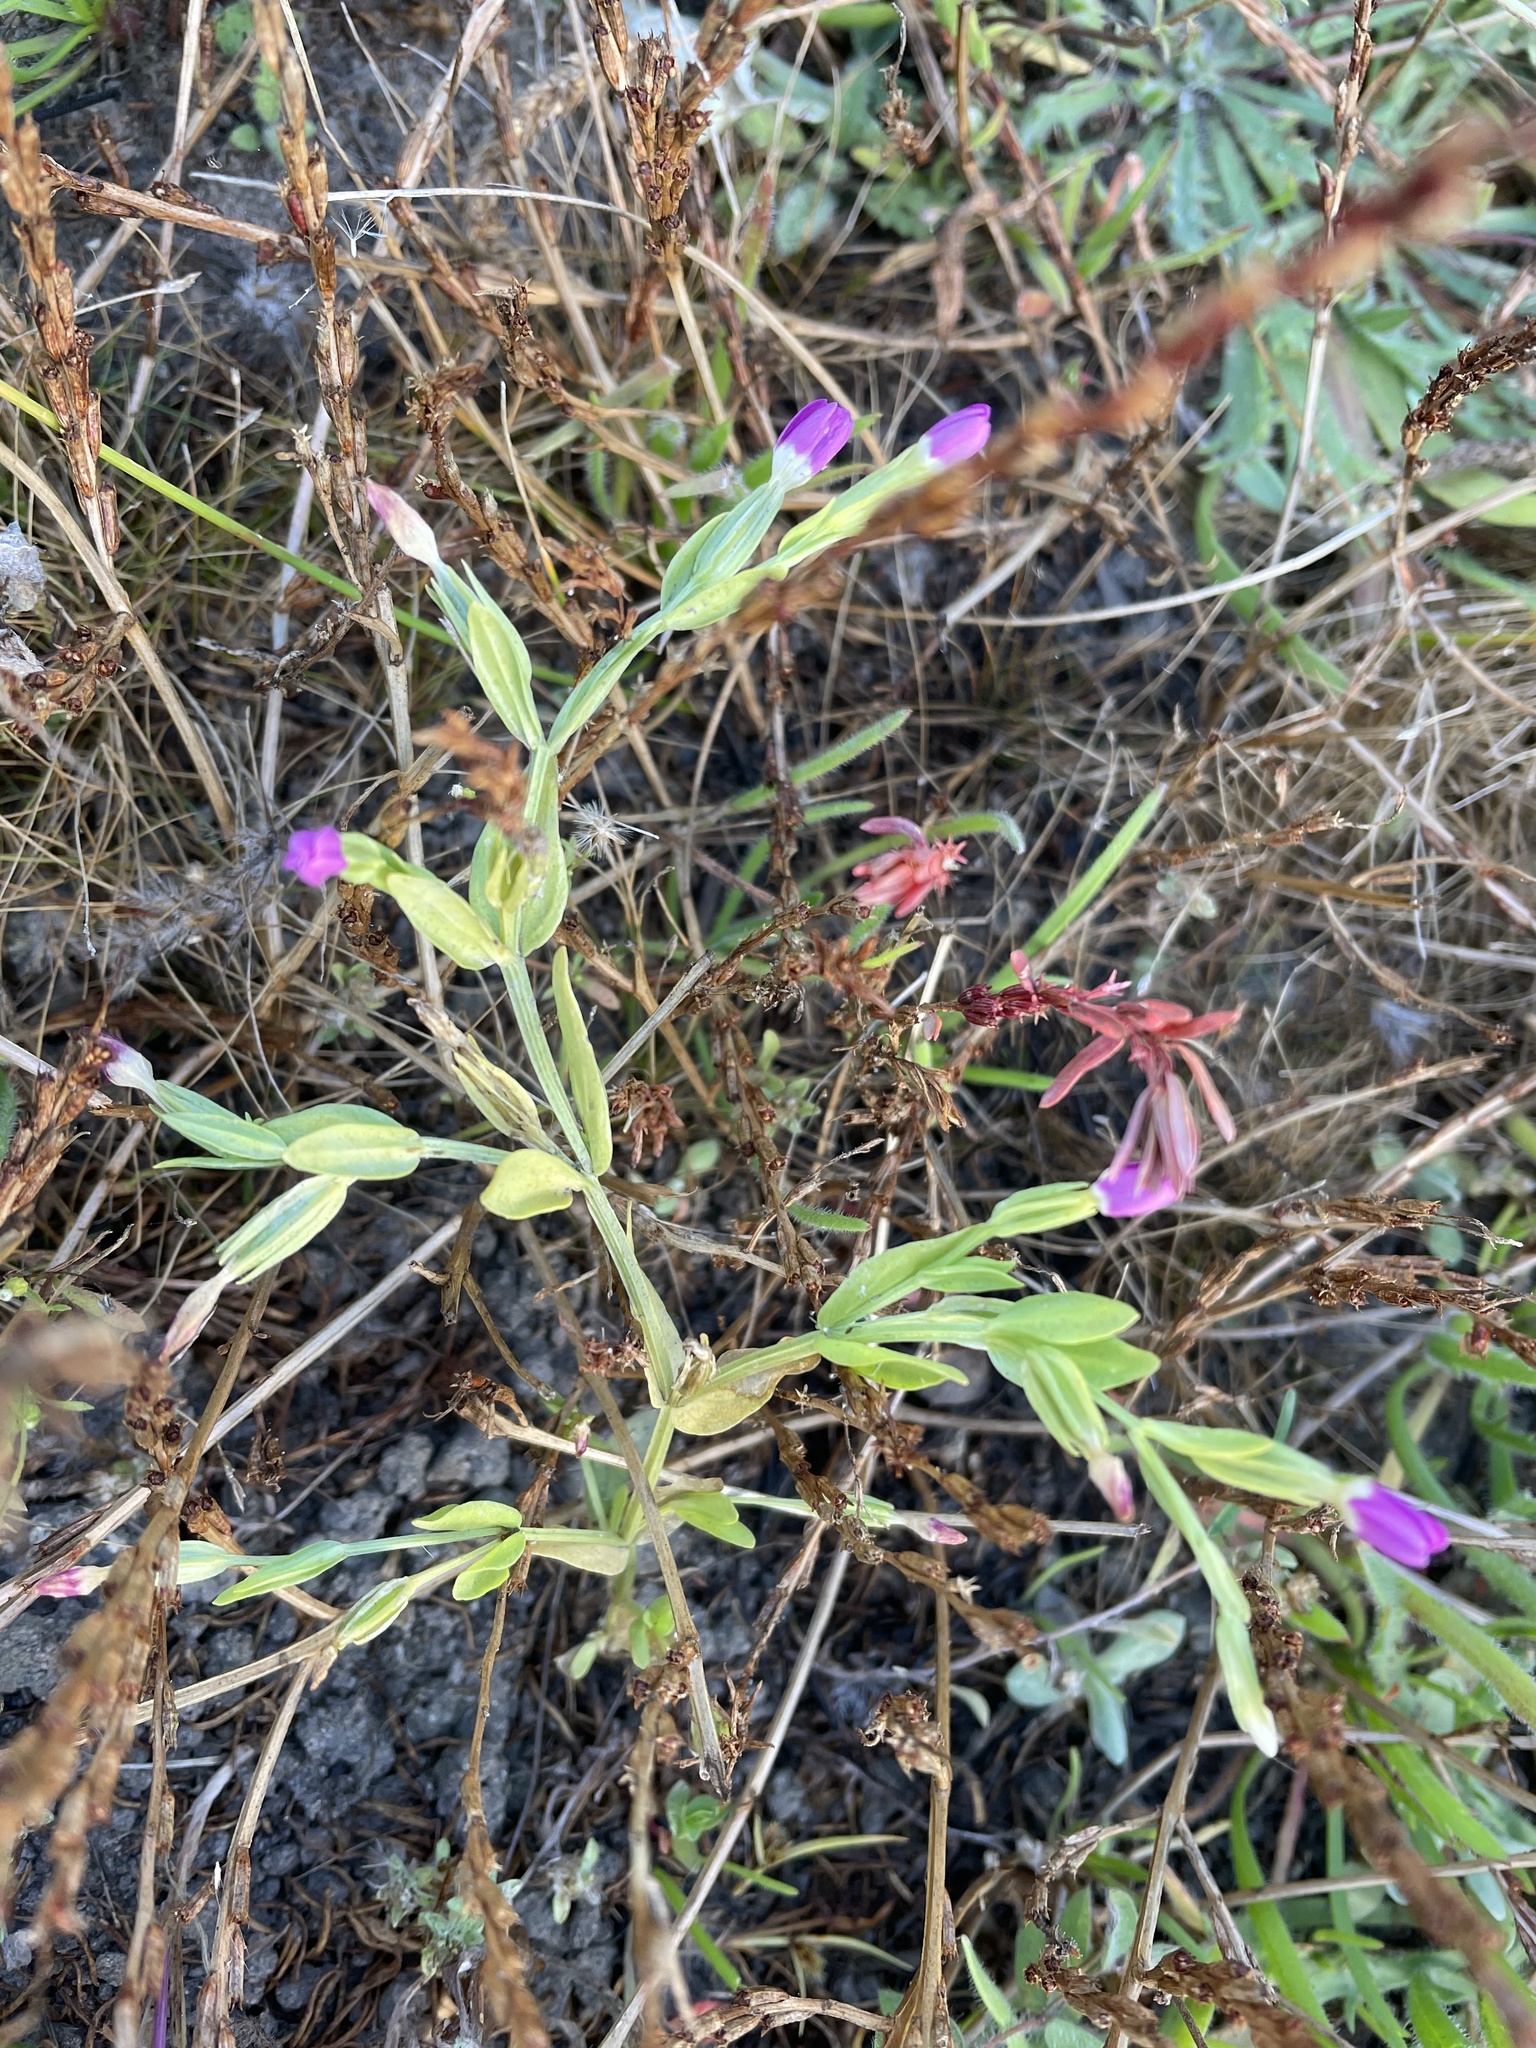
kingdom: Plantae
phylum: Tracheophyta
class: Magnoliopsida
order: Gentianales
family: Gentianaceae
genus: Zeltnera
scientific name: Zeltnera davyi
